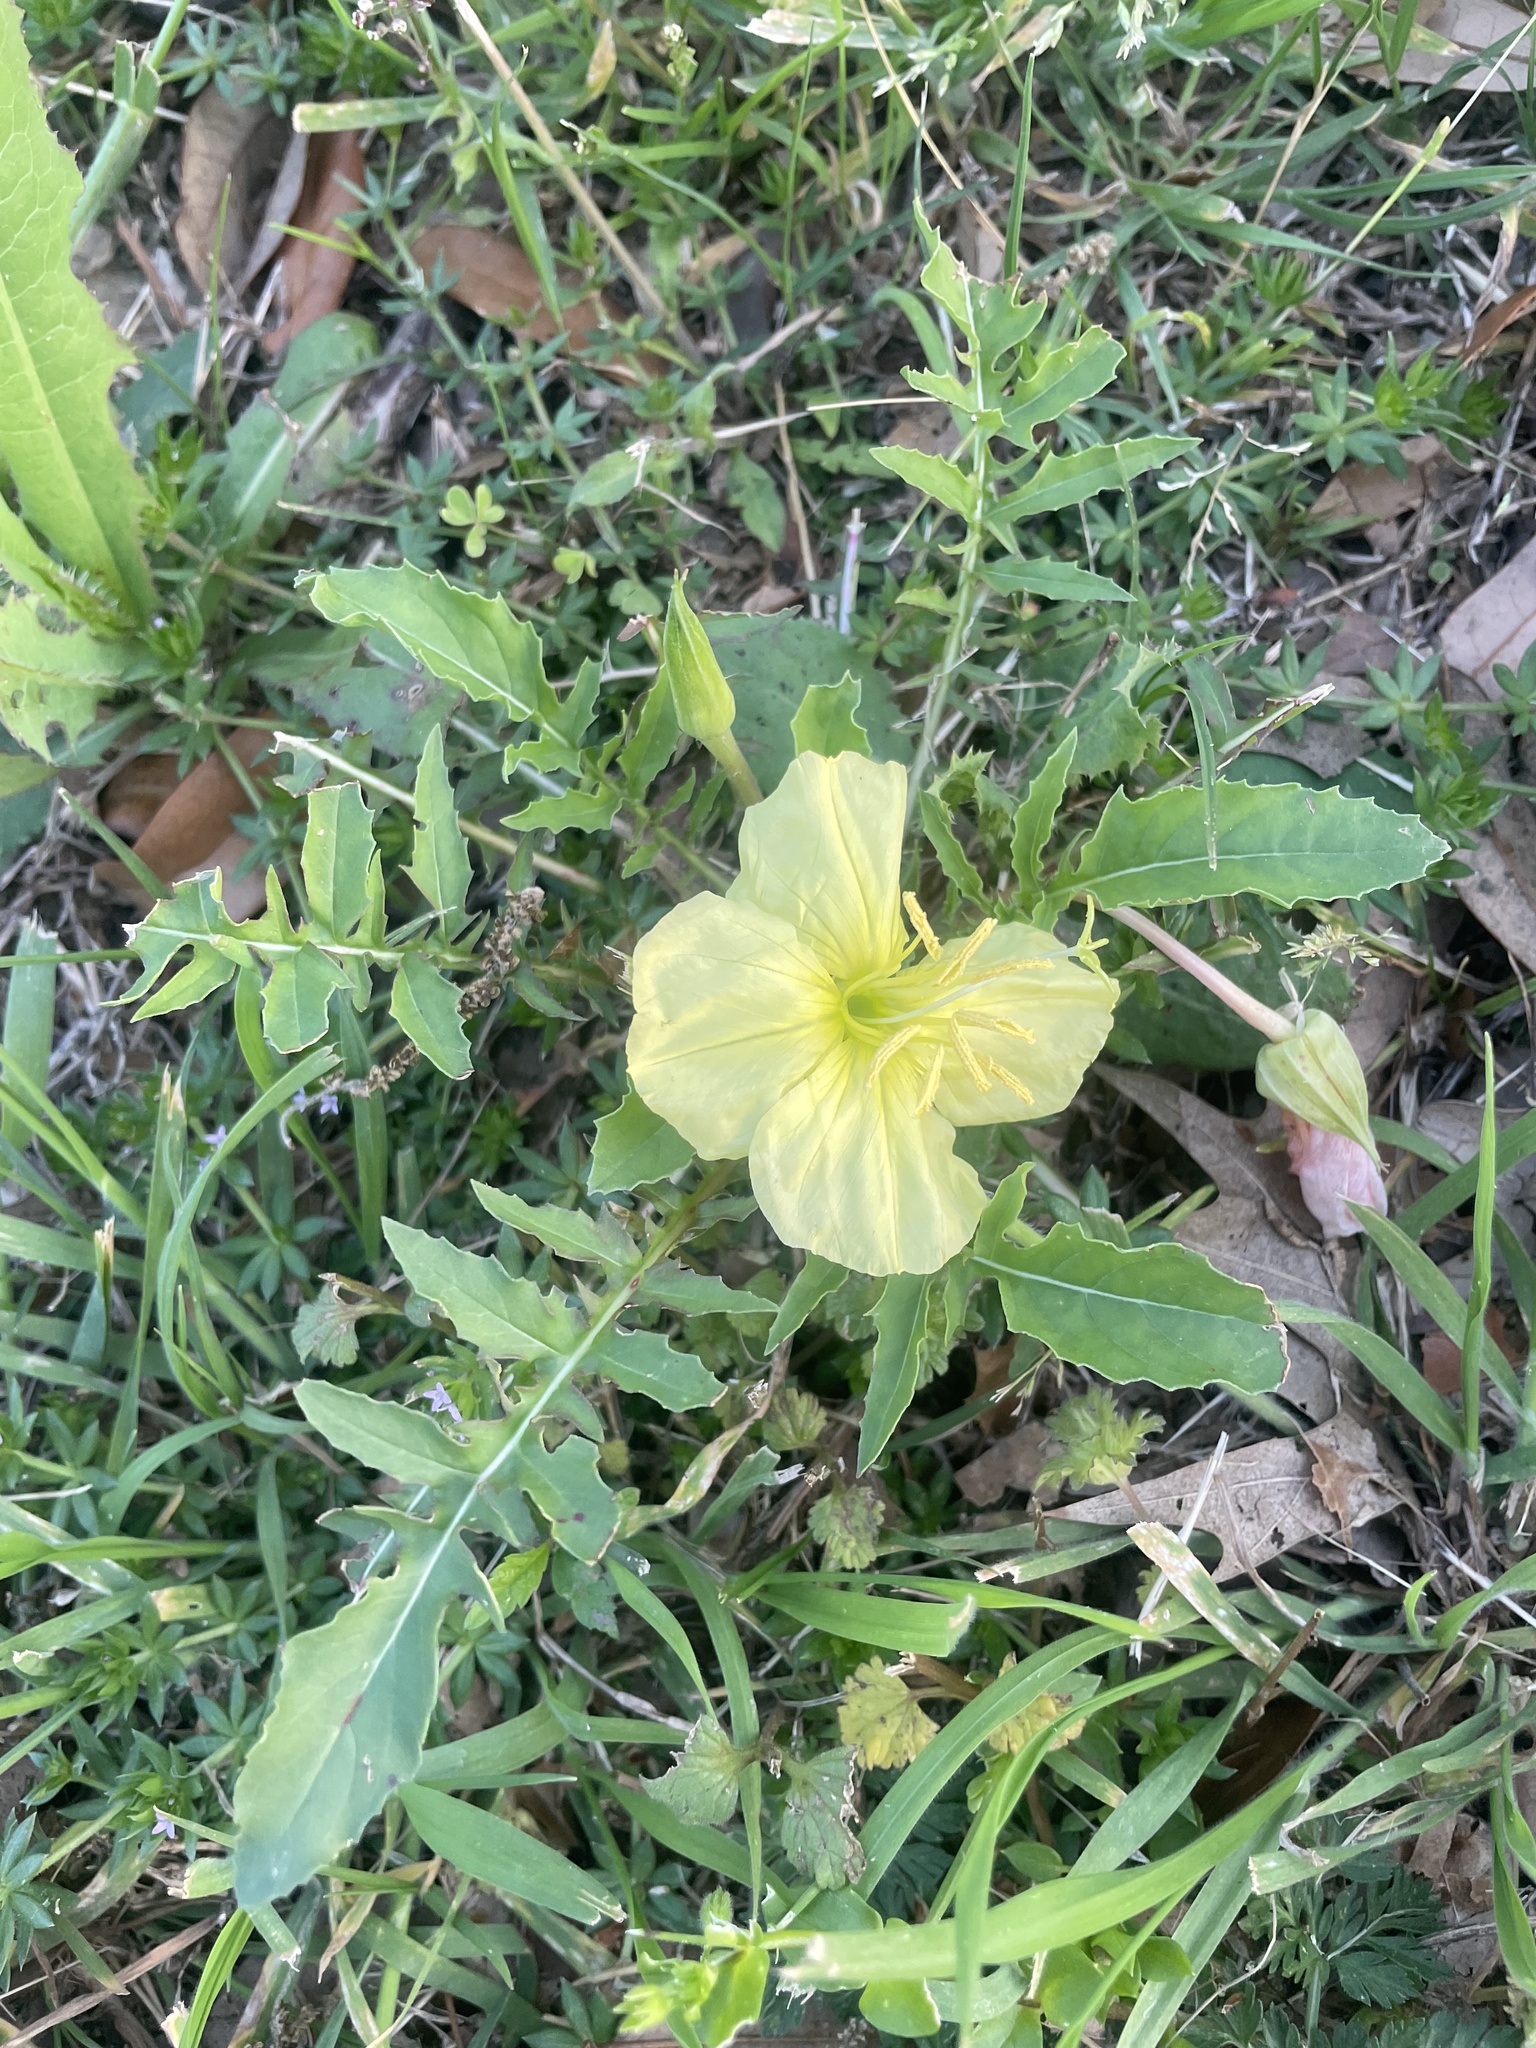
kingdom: Plantae
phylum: Tracheophyta
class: Magnoliopsida
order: Myrtales
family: Onagraceae
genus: Oenothera
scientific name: Oenothera triloba
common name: Sessile evening-primrose
